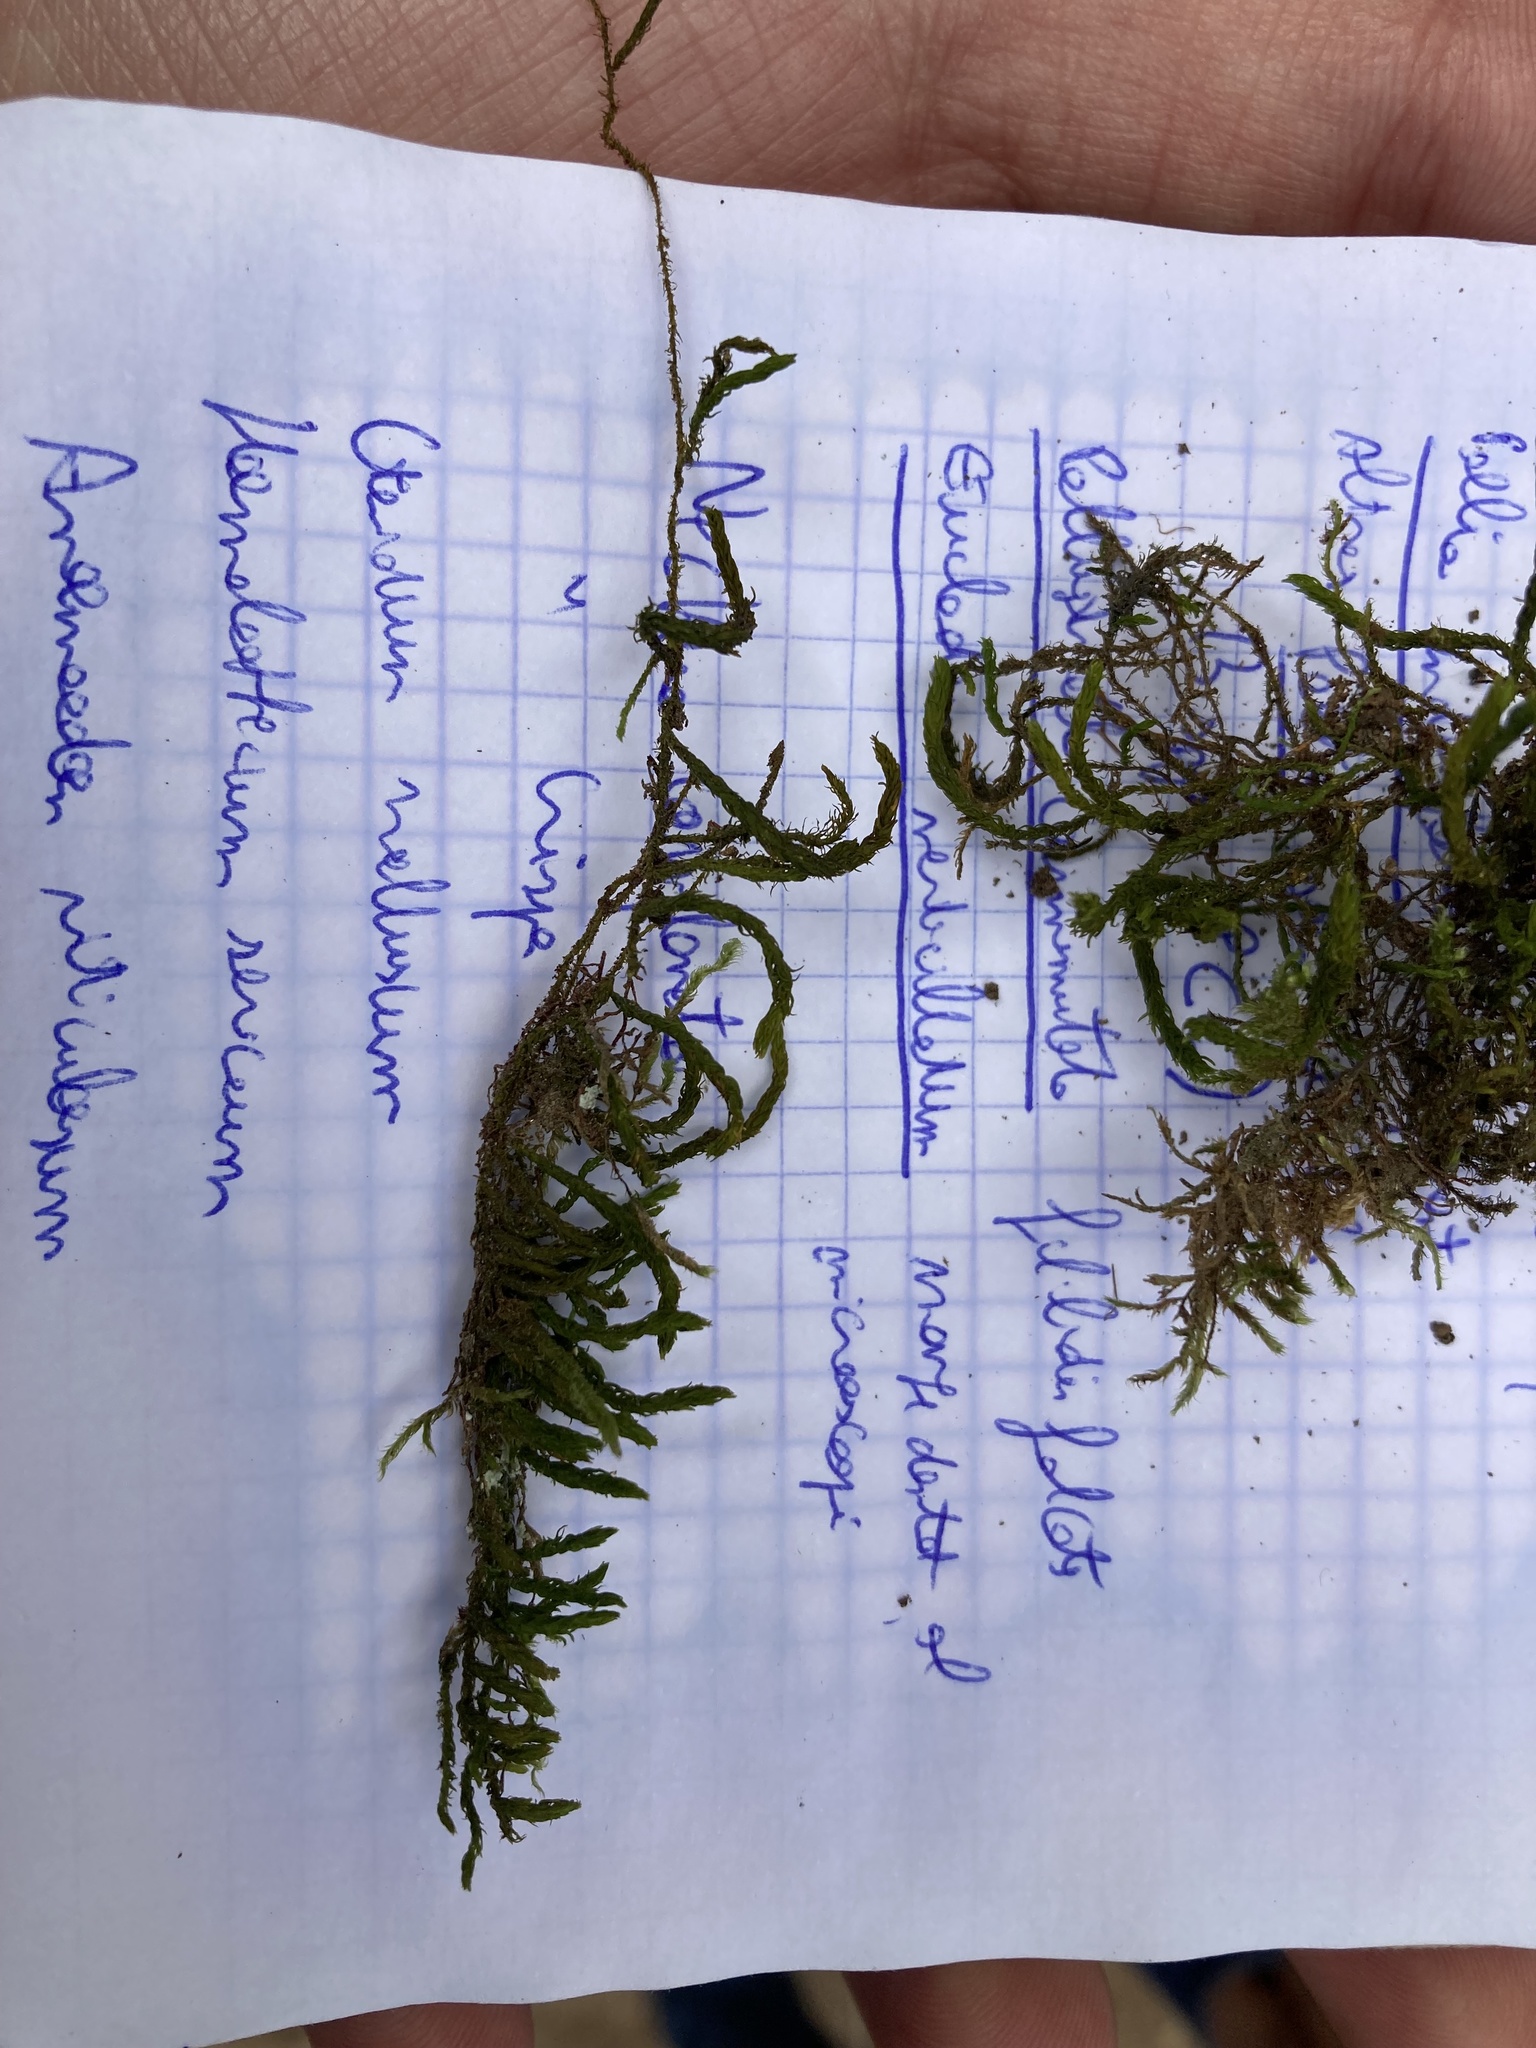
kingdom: Plantae
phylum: Bryophyta
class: Bryopsida
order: Hypnales
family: Anomodontaceae
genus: Anomodon
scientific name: Anomodon viticulosus
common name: Tall anomodon
